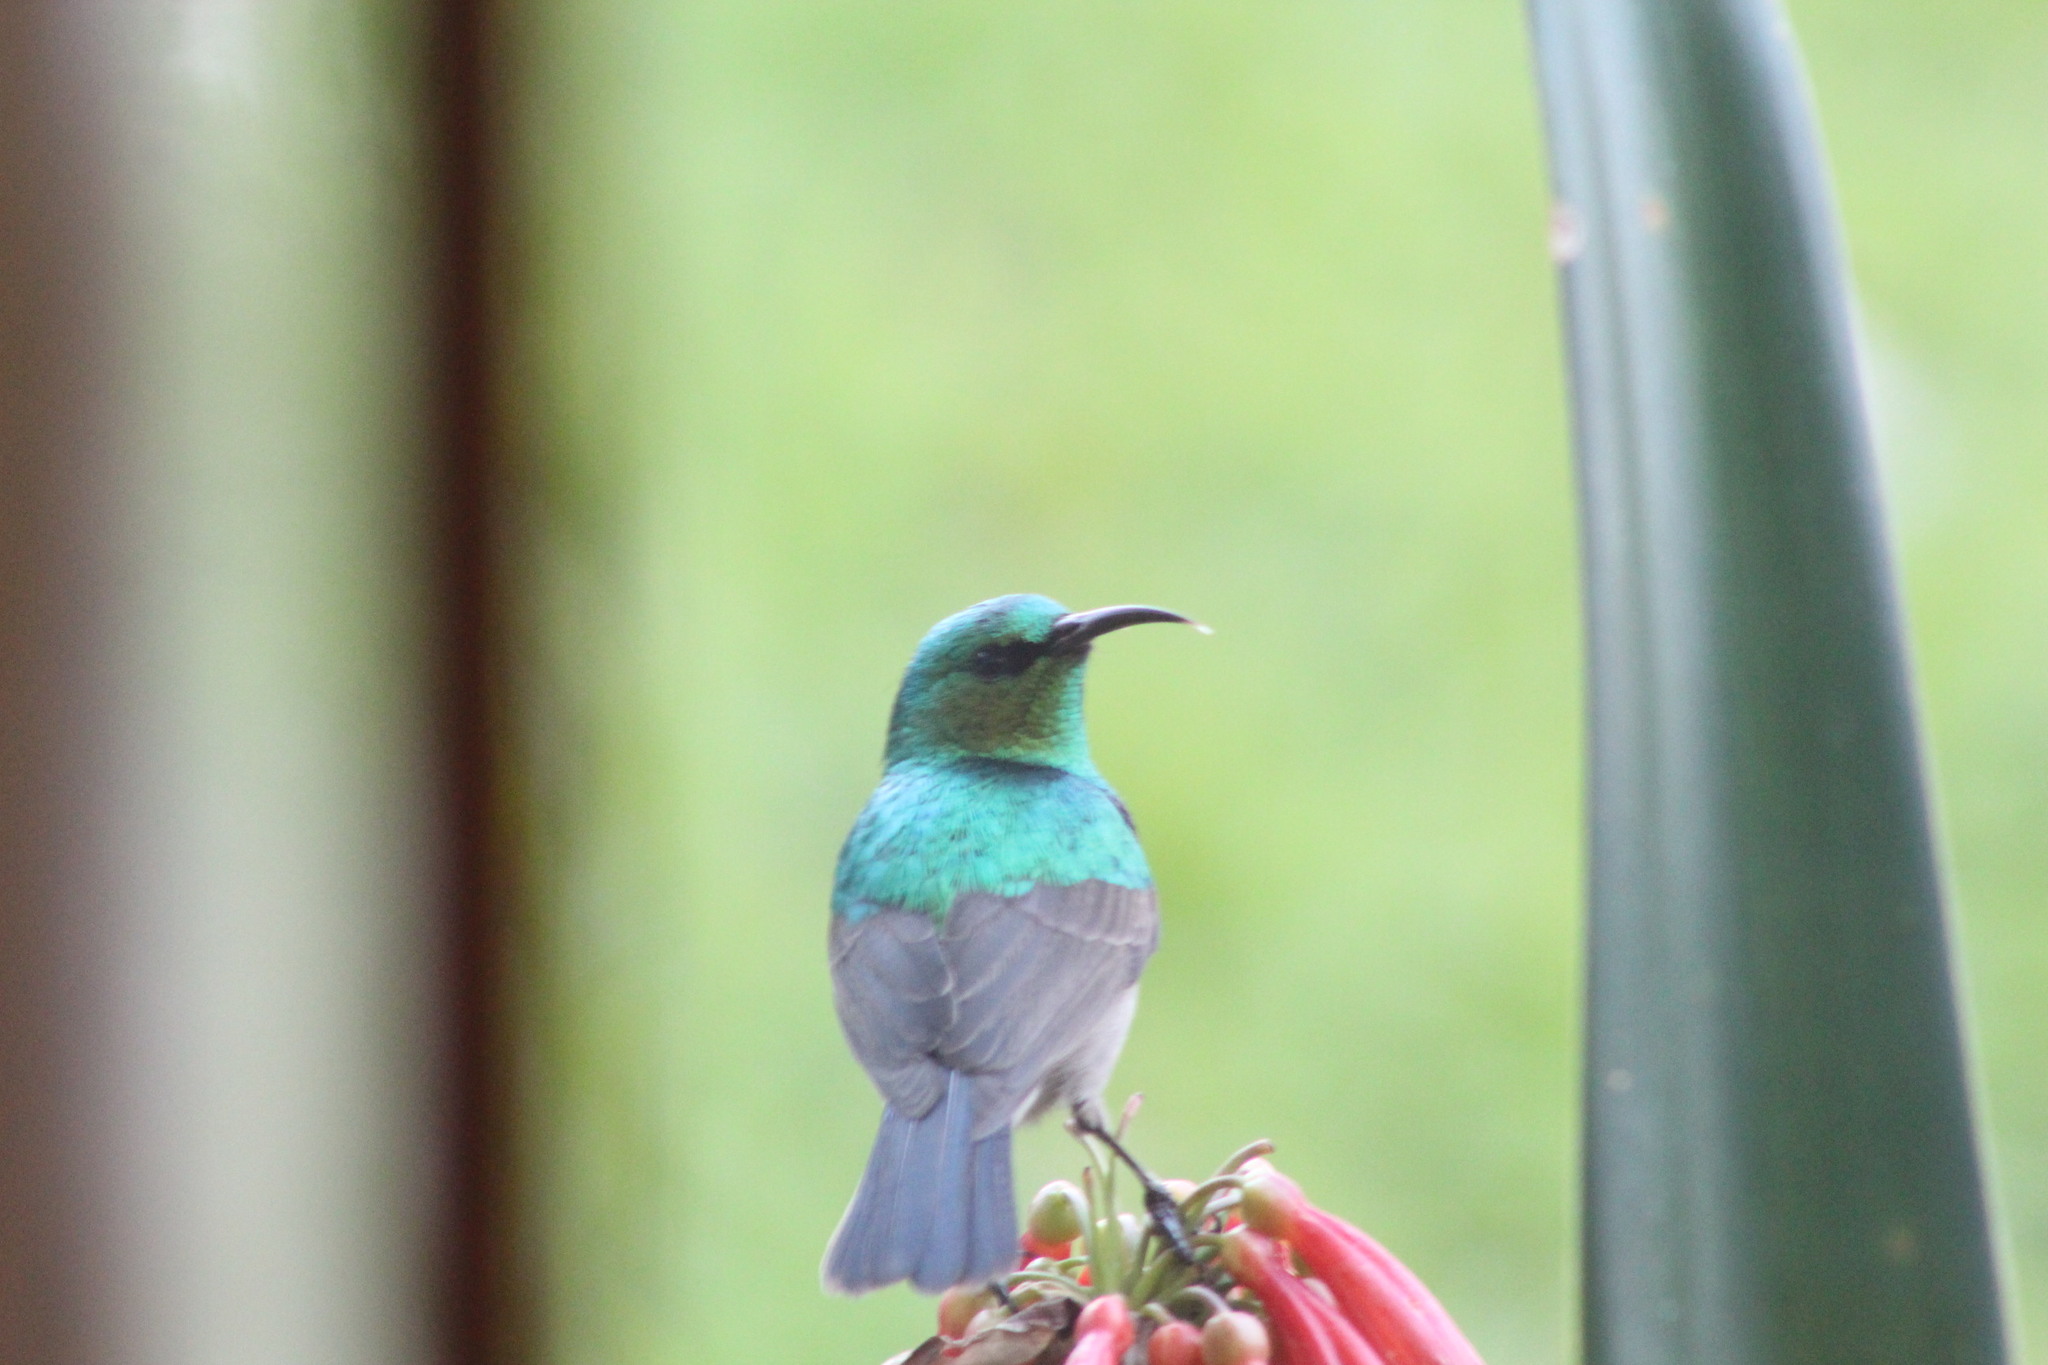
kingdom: Animalia
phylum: Chordata
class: Aves
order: Passeriformes
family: Nectariniidae
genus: Cinnyris
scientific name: Cinnyris chalybeus
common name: Southern double-collared sunbird
